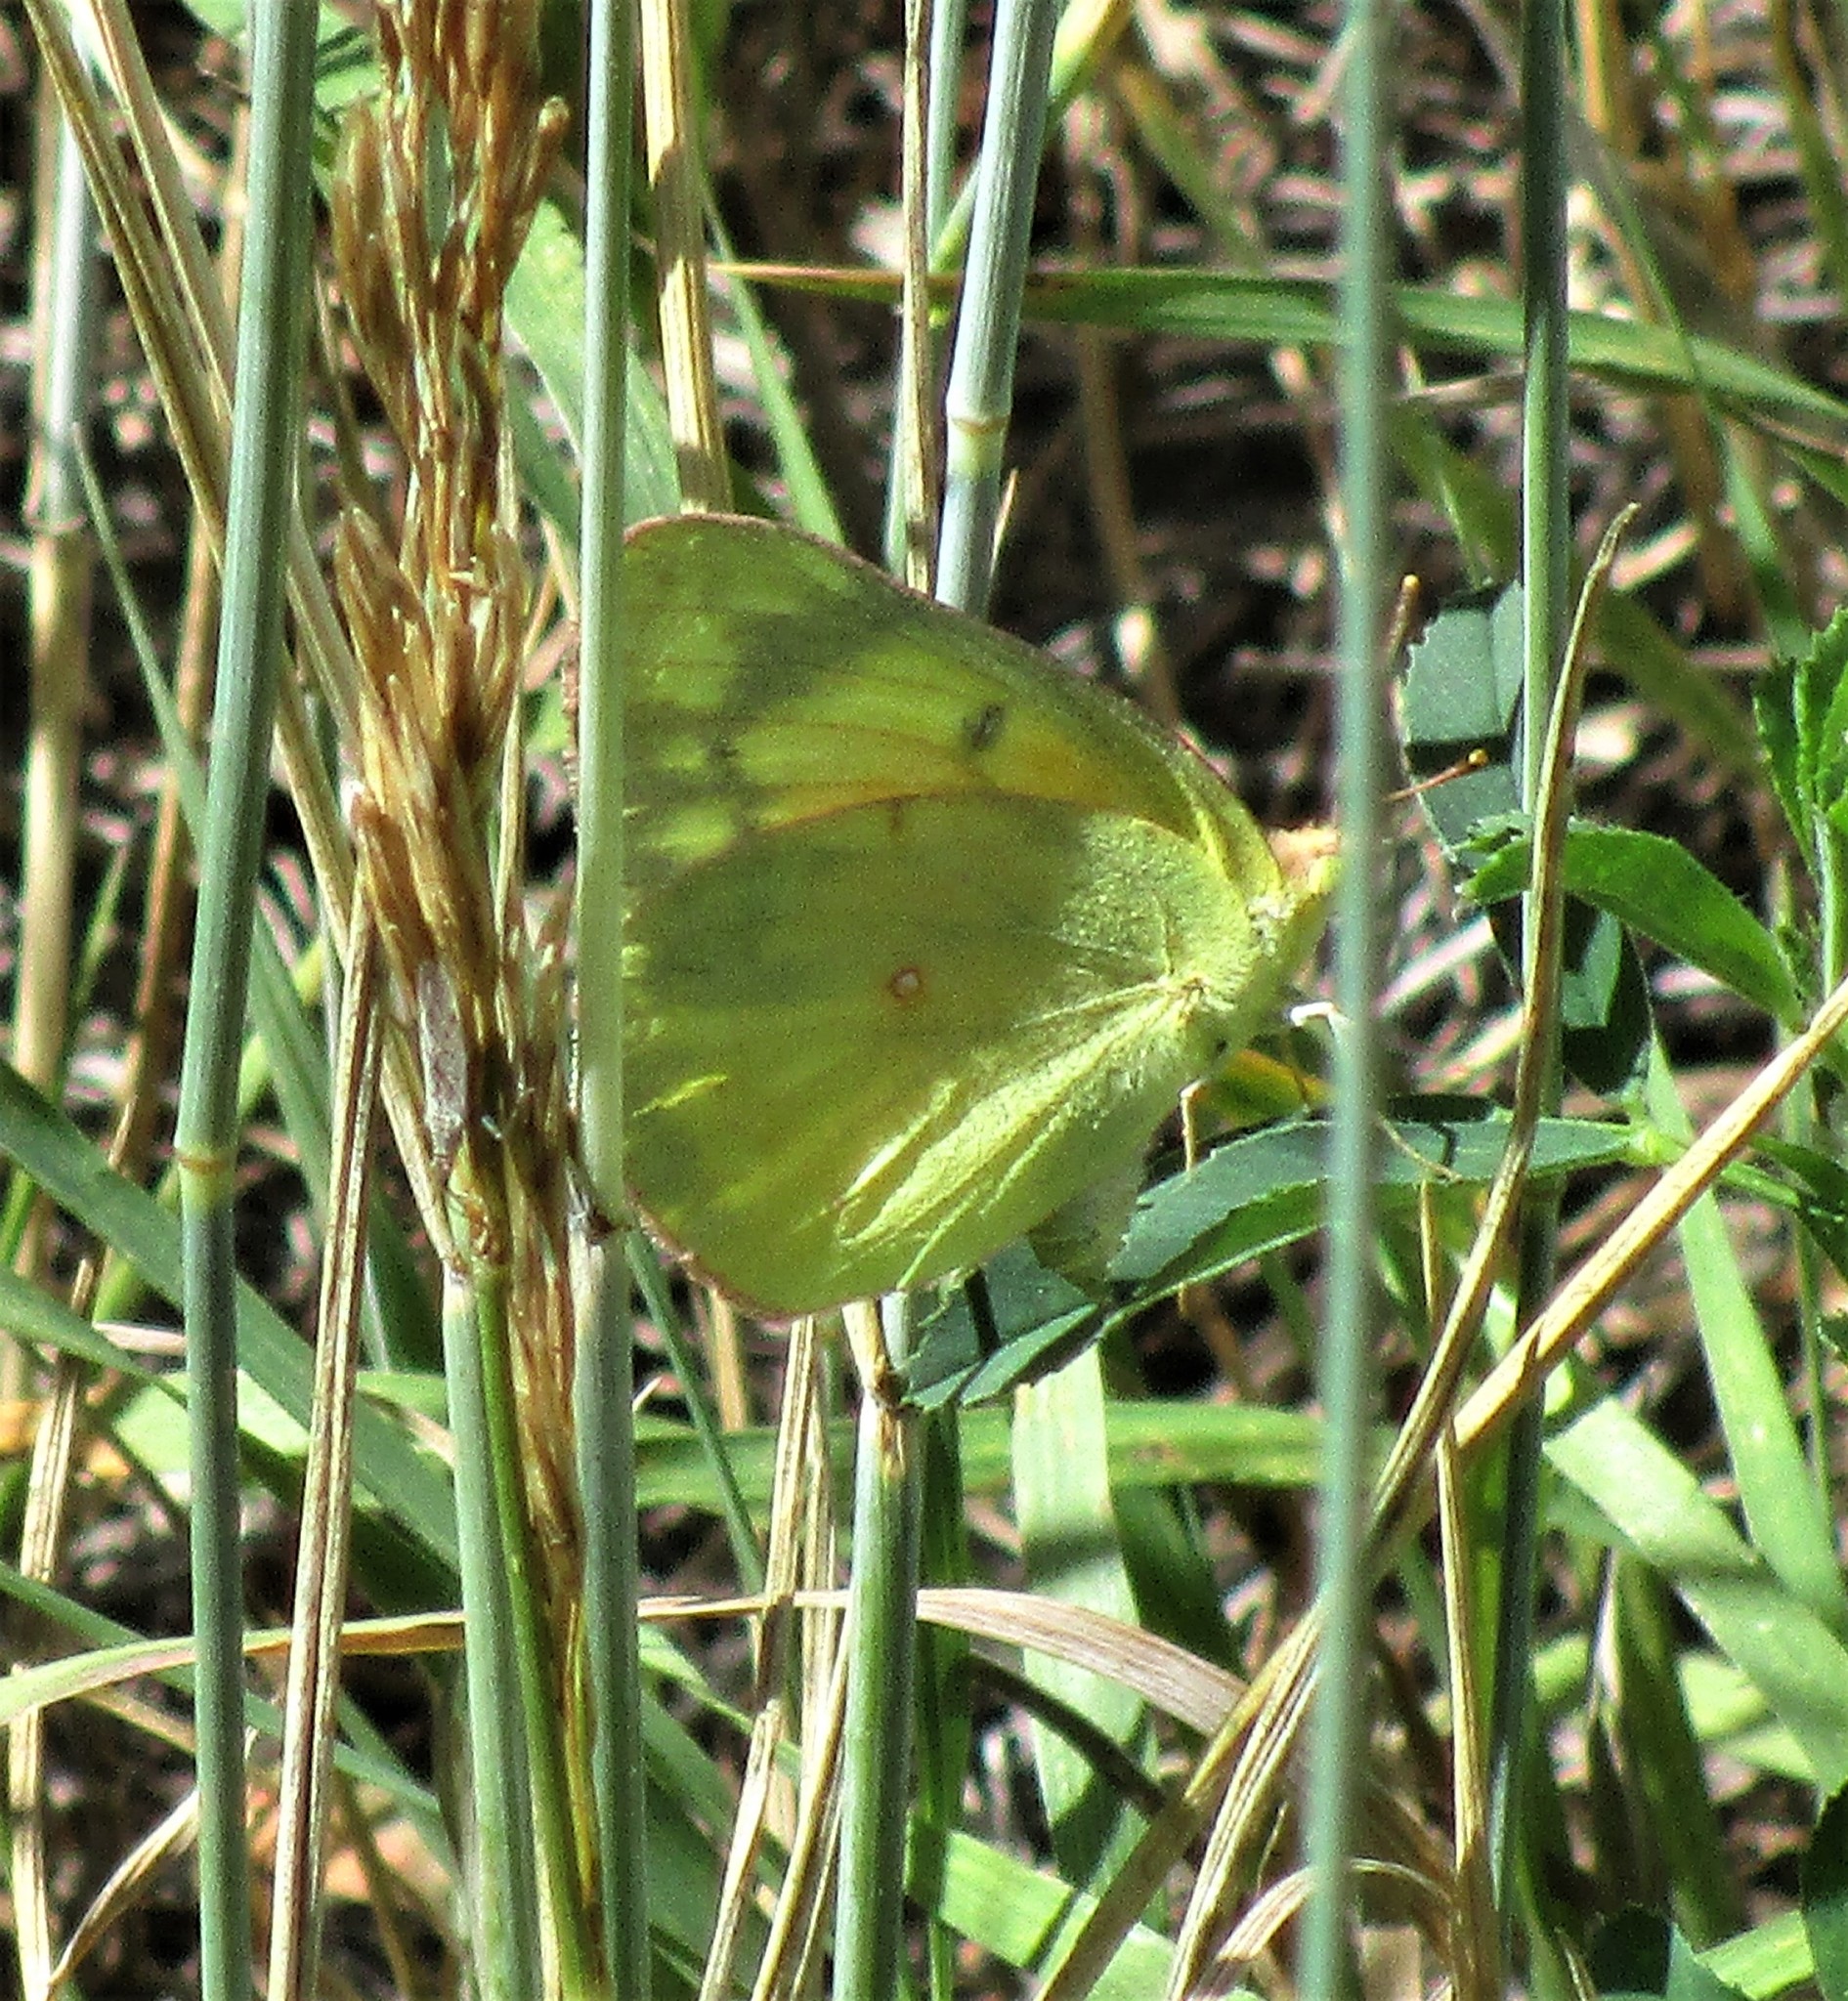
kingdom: Animalia
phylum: Arthropoda
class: Insecta
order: Lepidoptera
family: Pieridae
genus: Colias
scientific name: Colias eurytheme
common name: Alfalfa butterfly
